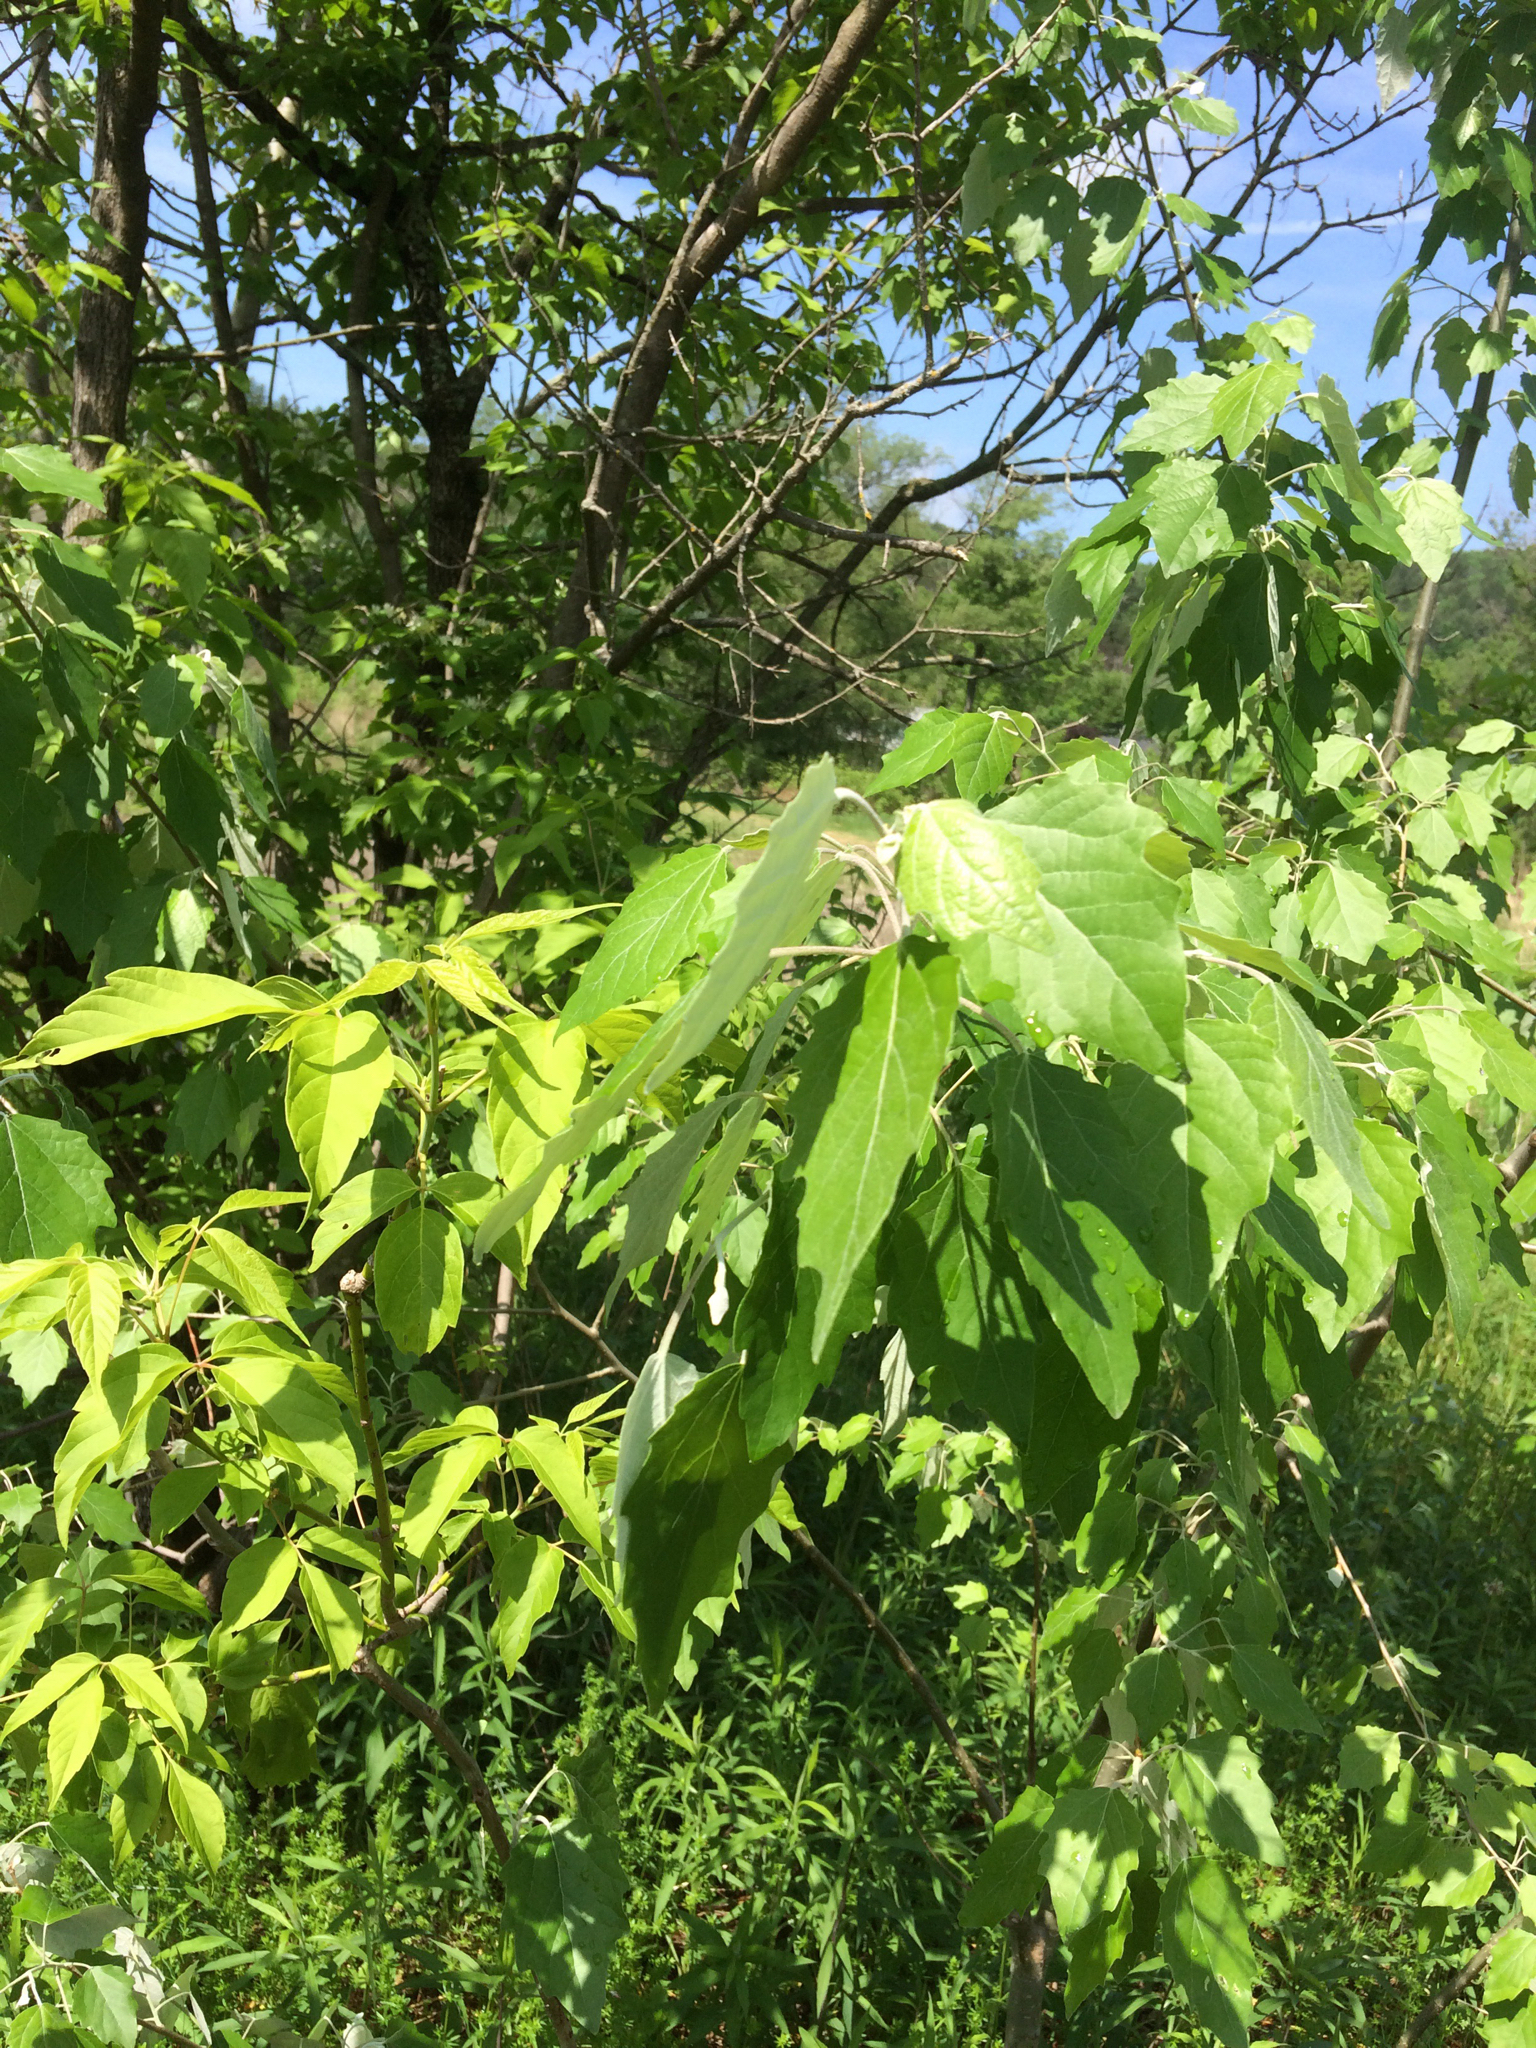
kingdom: Plantae
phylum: Tracheophyta
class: Magnoliopsida
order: Malpighiales
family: Salicaceae
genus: Populus
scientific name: Populus alba
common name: White poplar
